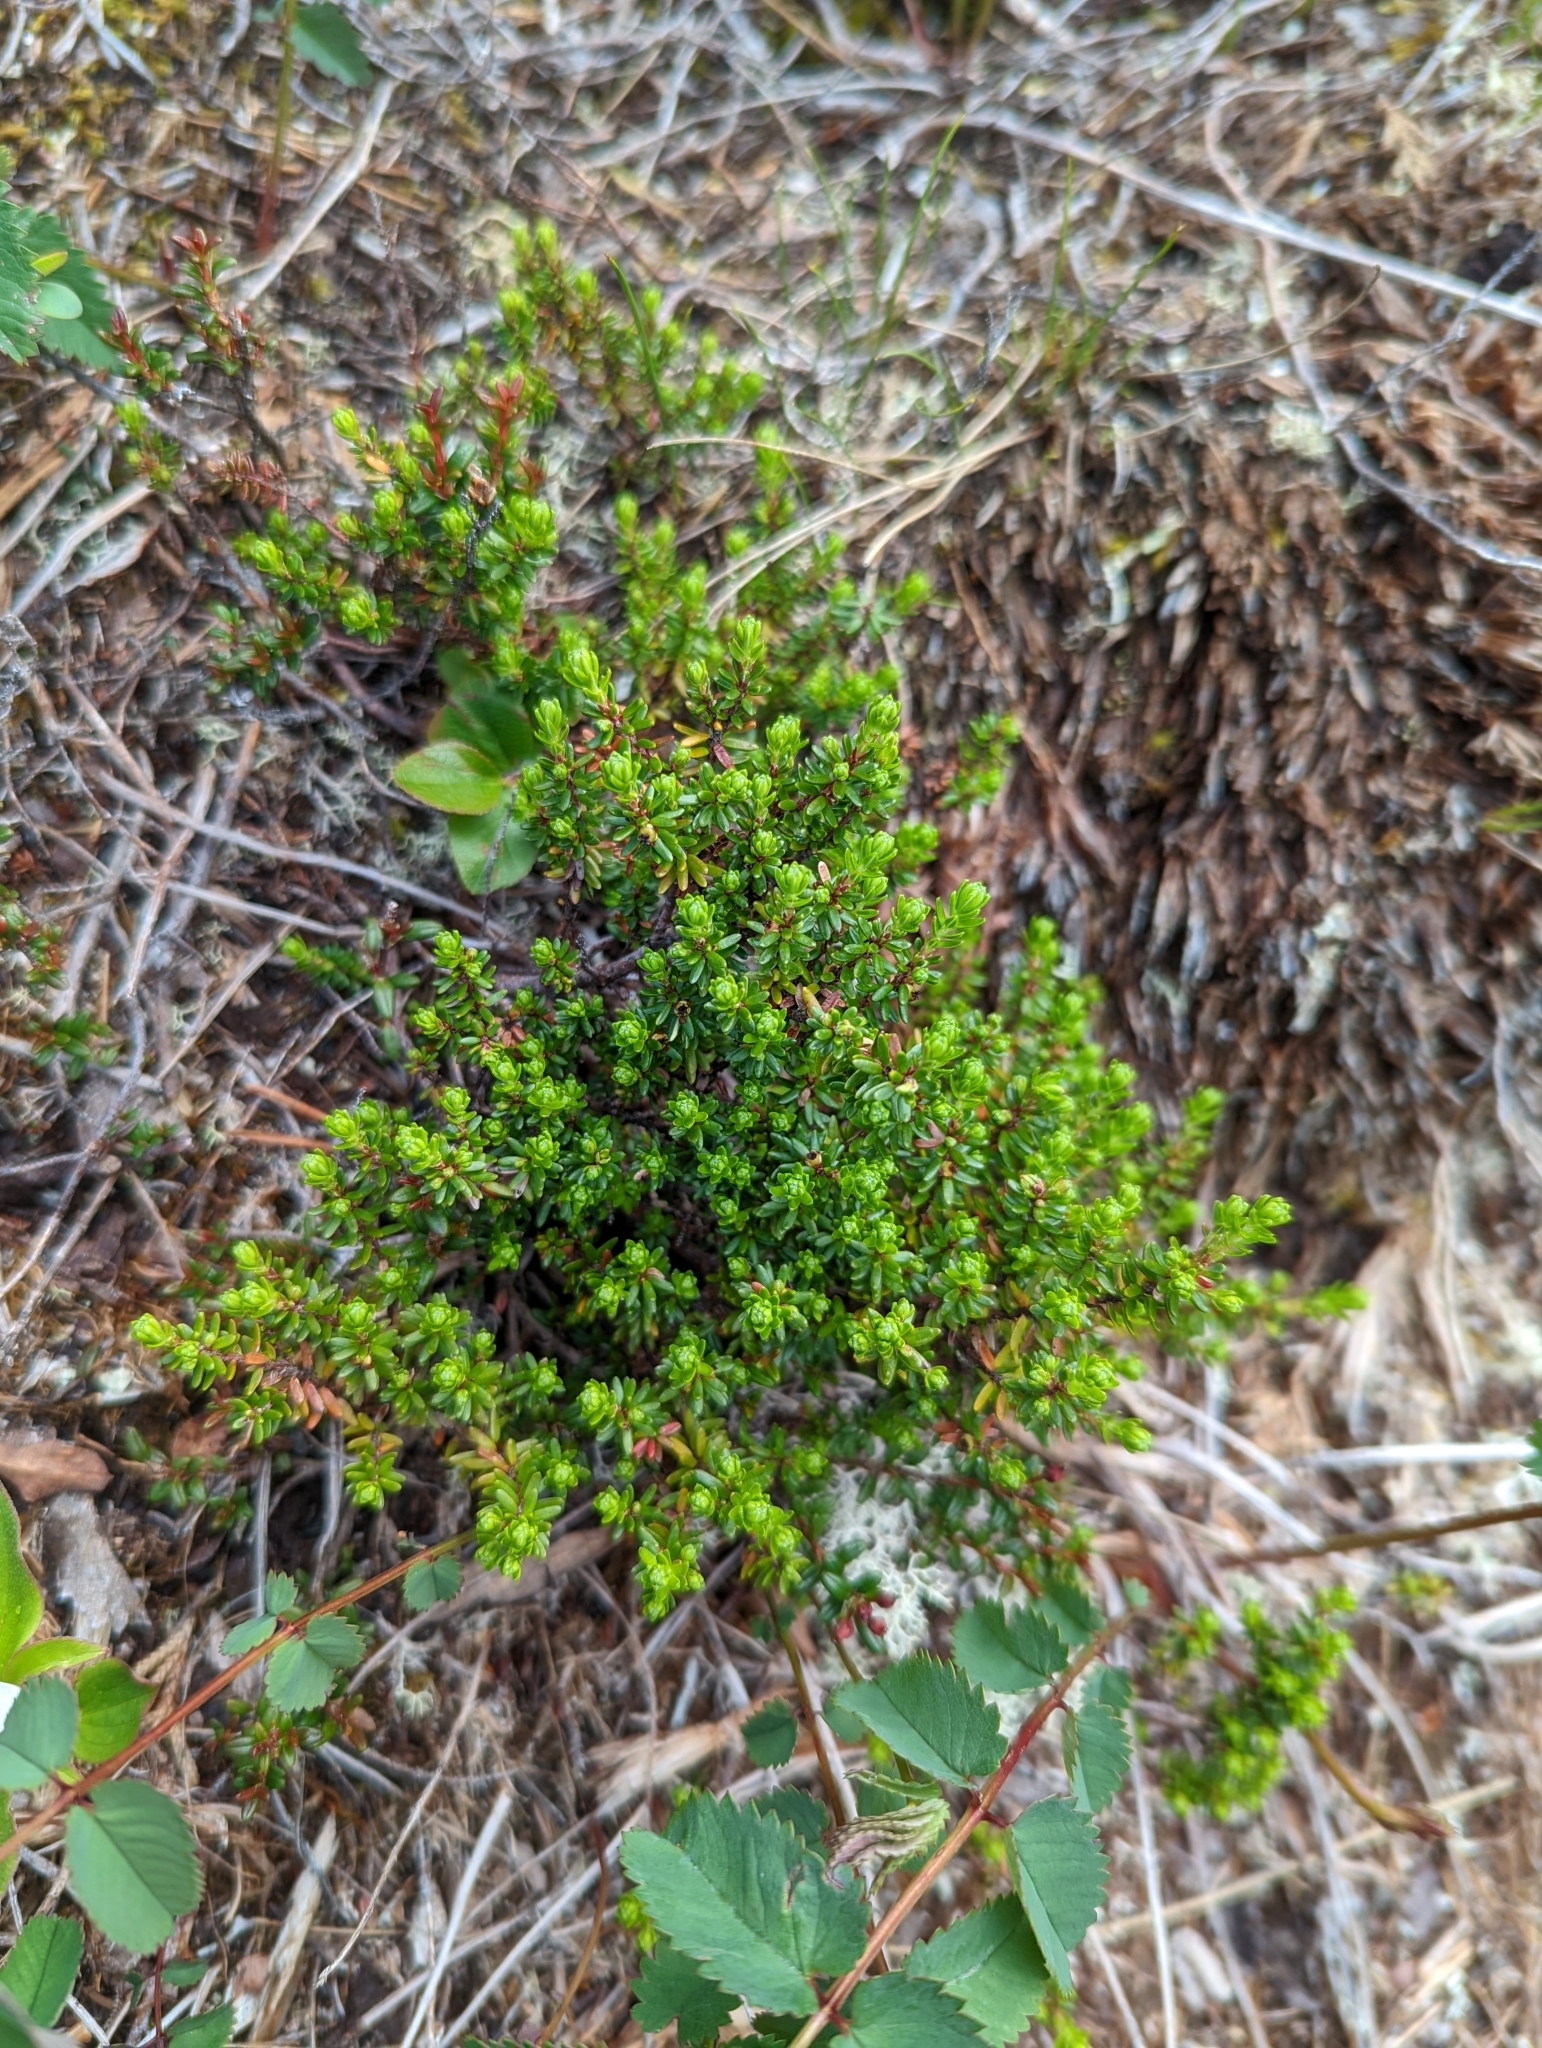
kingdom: Plantae
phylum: Tracheophyta
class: Magnoliopsida
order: Ericales
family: Ericaceae
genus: Empetrum
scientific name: Empetrum nigrum
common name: Black crowberry
